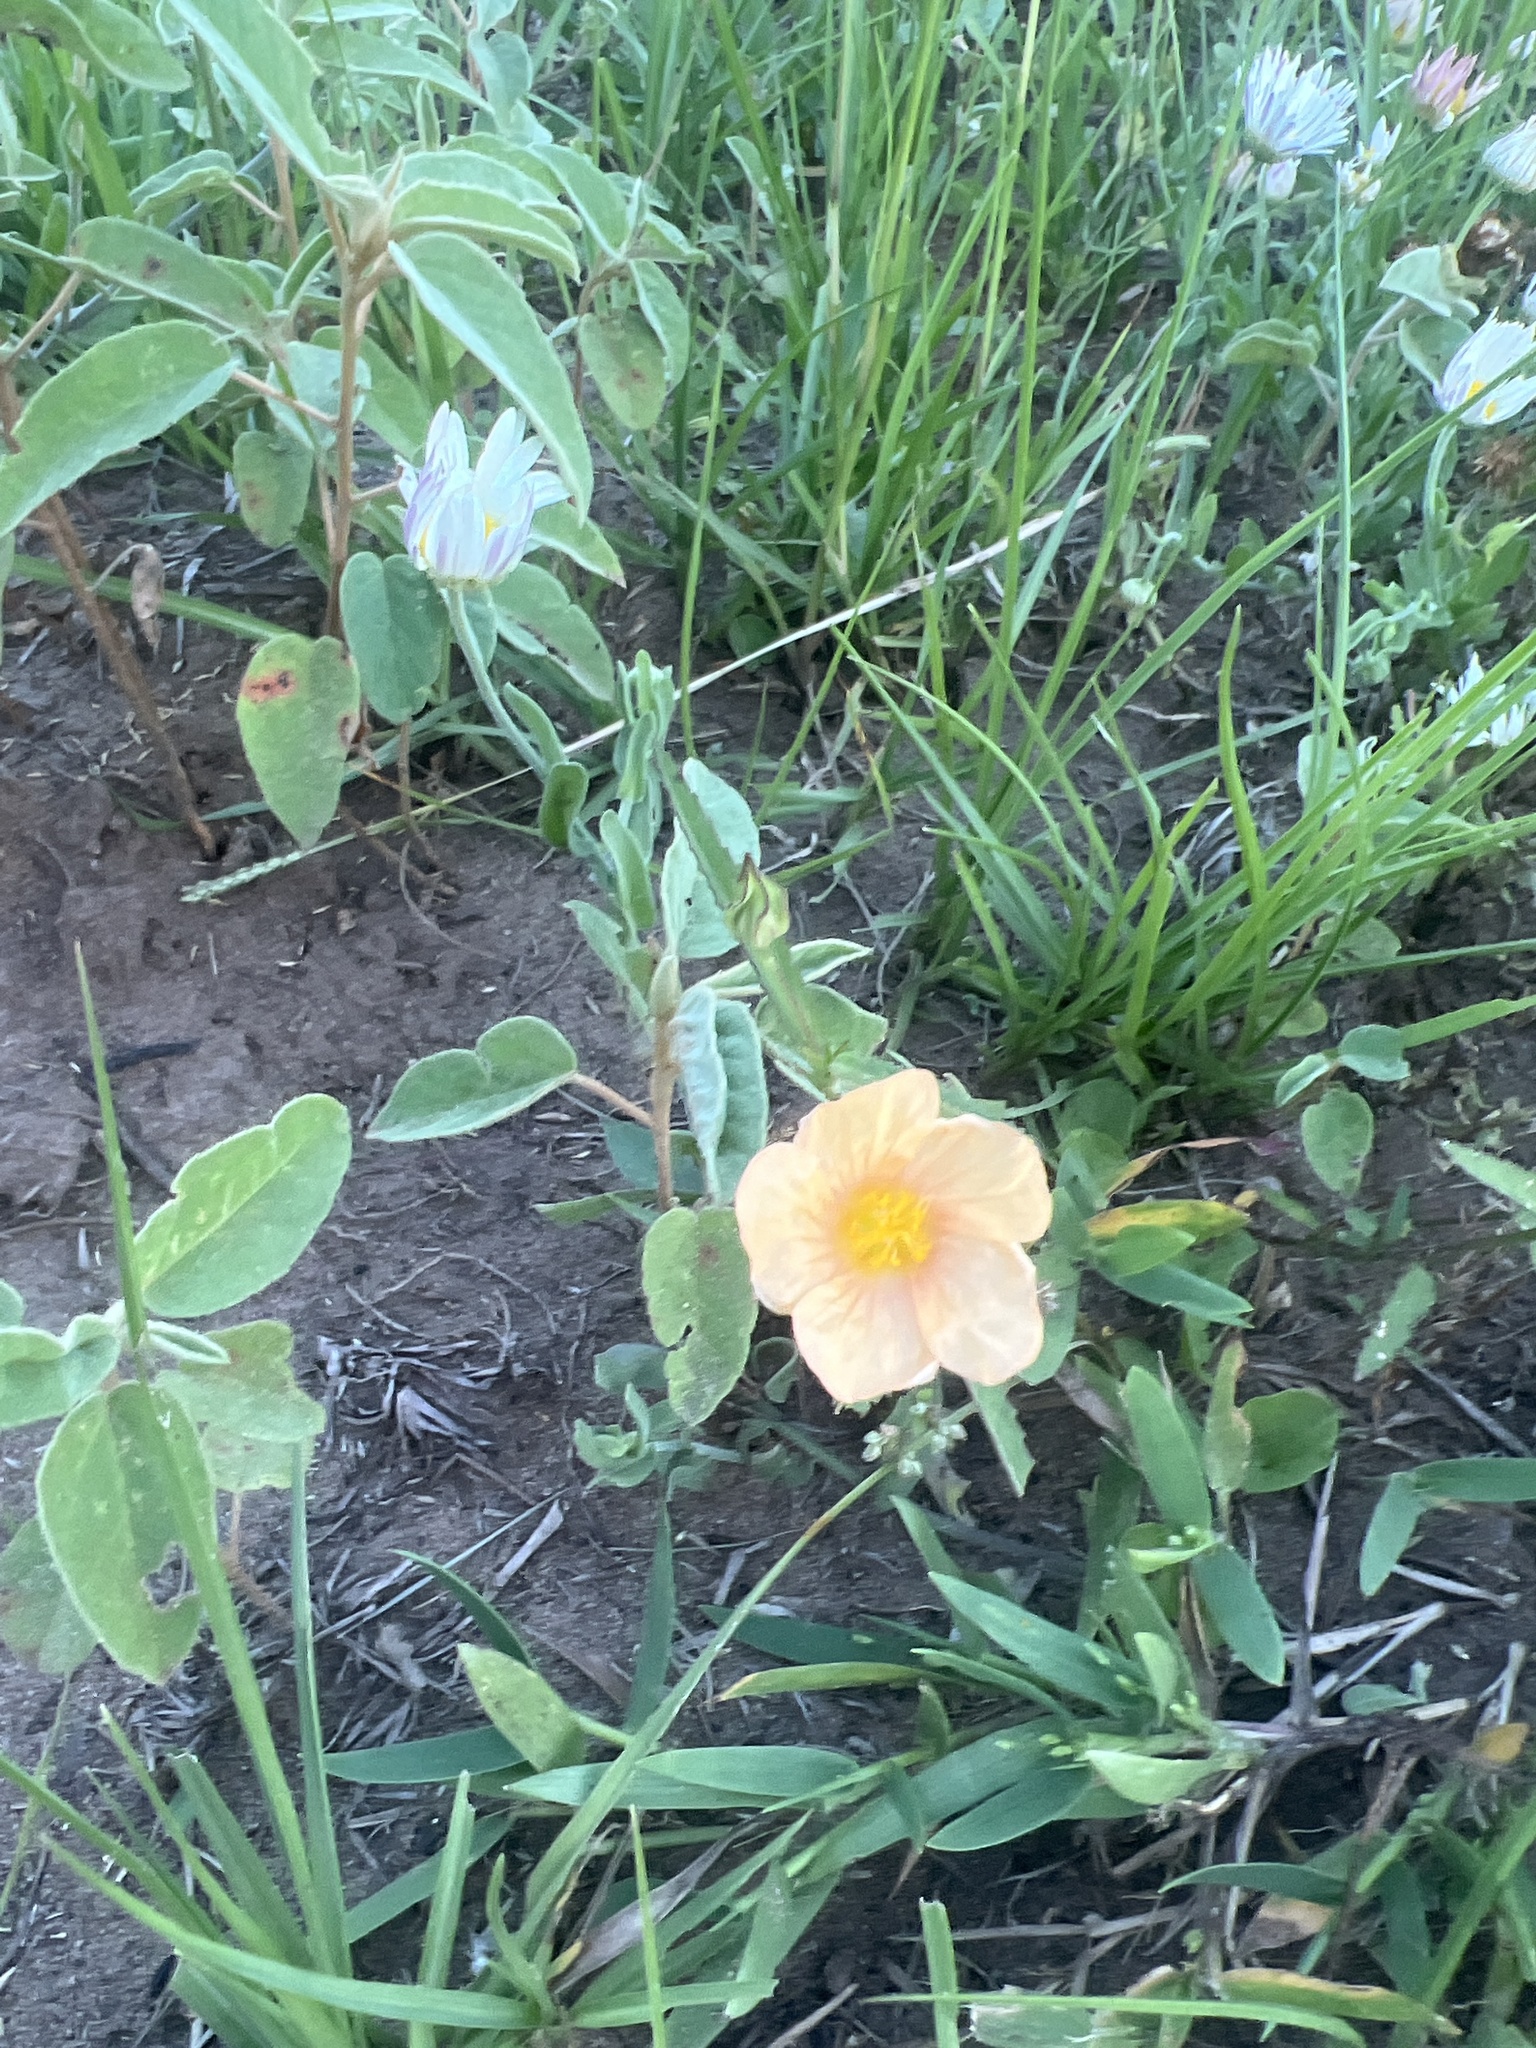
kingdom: Plantae
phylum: Tracheophyta
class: Magnoliopsida
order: Malvales
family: Malvaceae
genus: Sida
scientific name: Sida abutilifolia
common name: Spreading fanpetals
